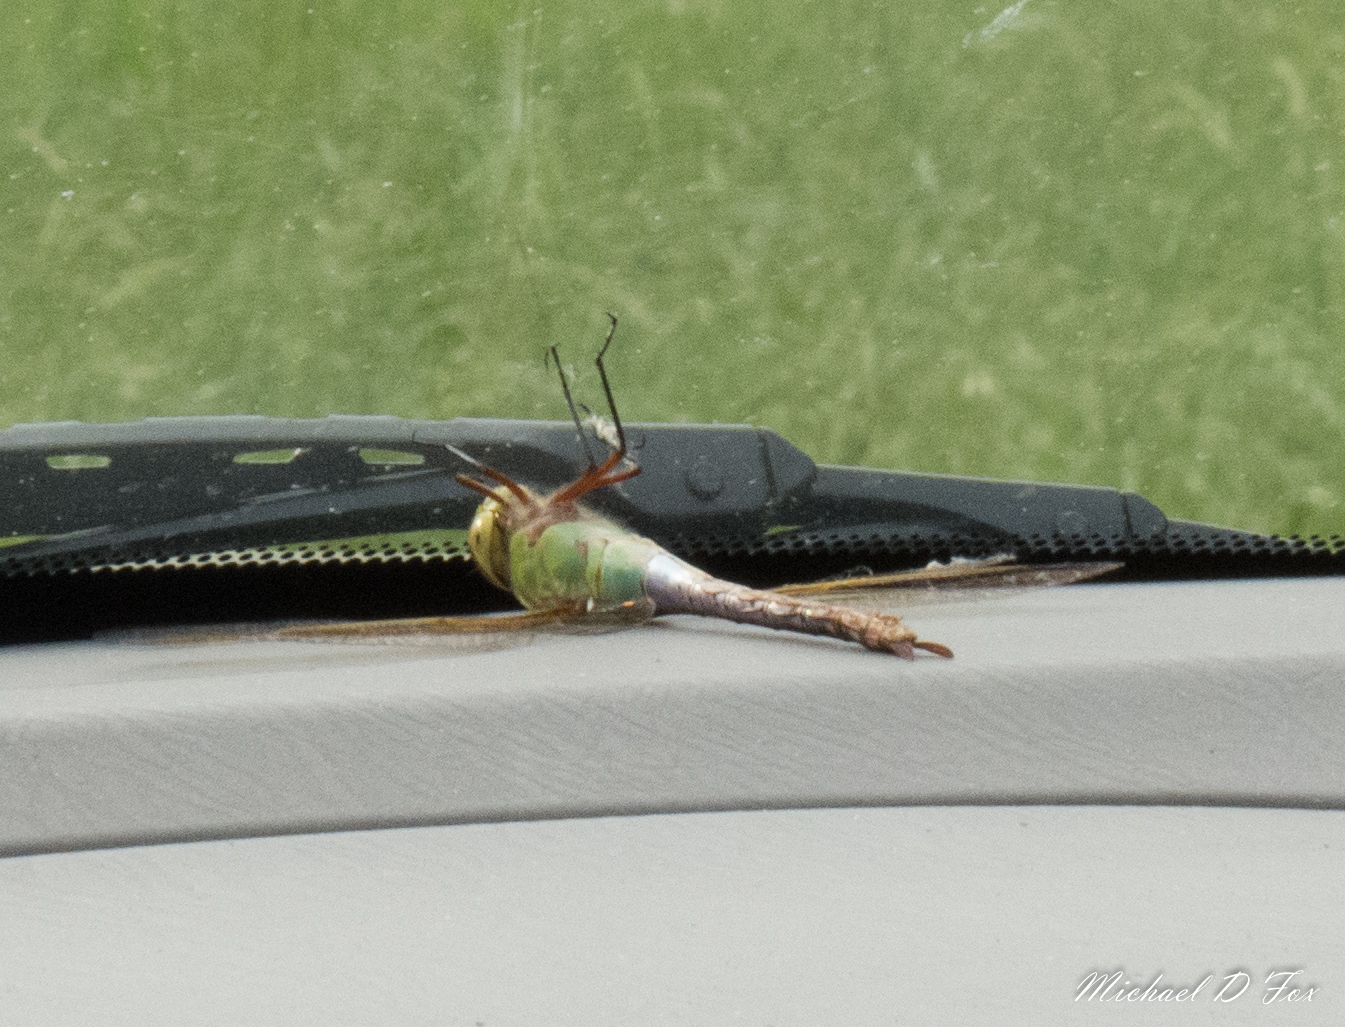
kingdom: Animalia
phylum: Arthropoda
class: Insecta
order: Odonata
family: Aeshnidae
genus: Anax
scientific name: Anax junius
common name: Common green darner
